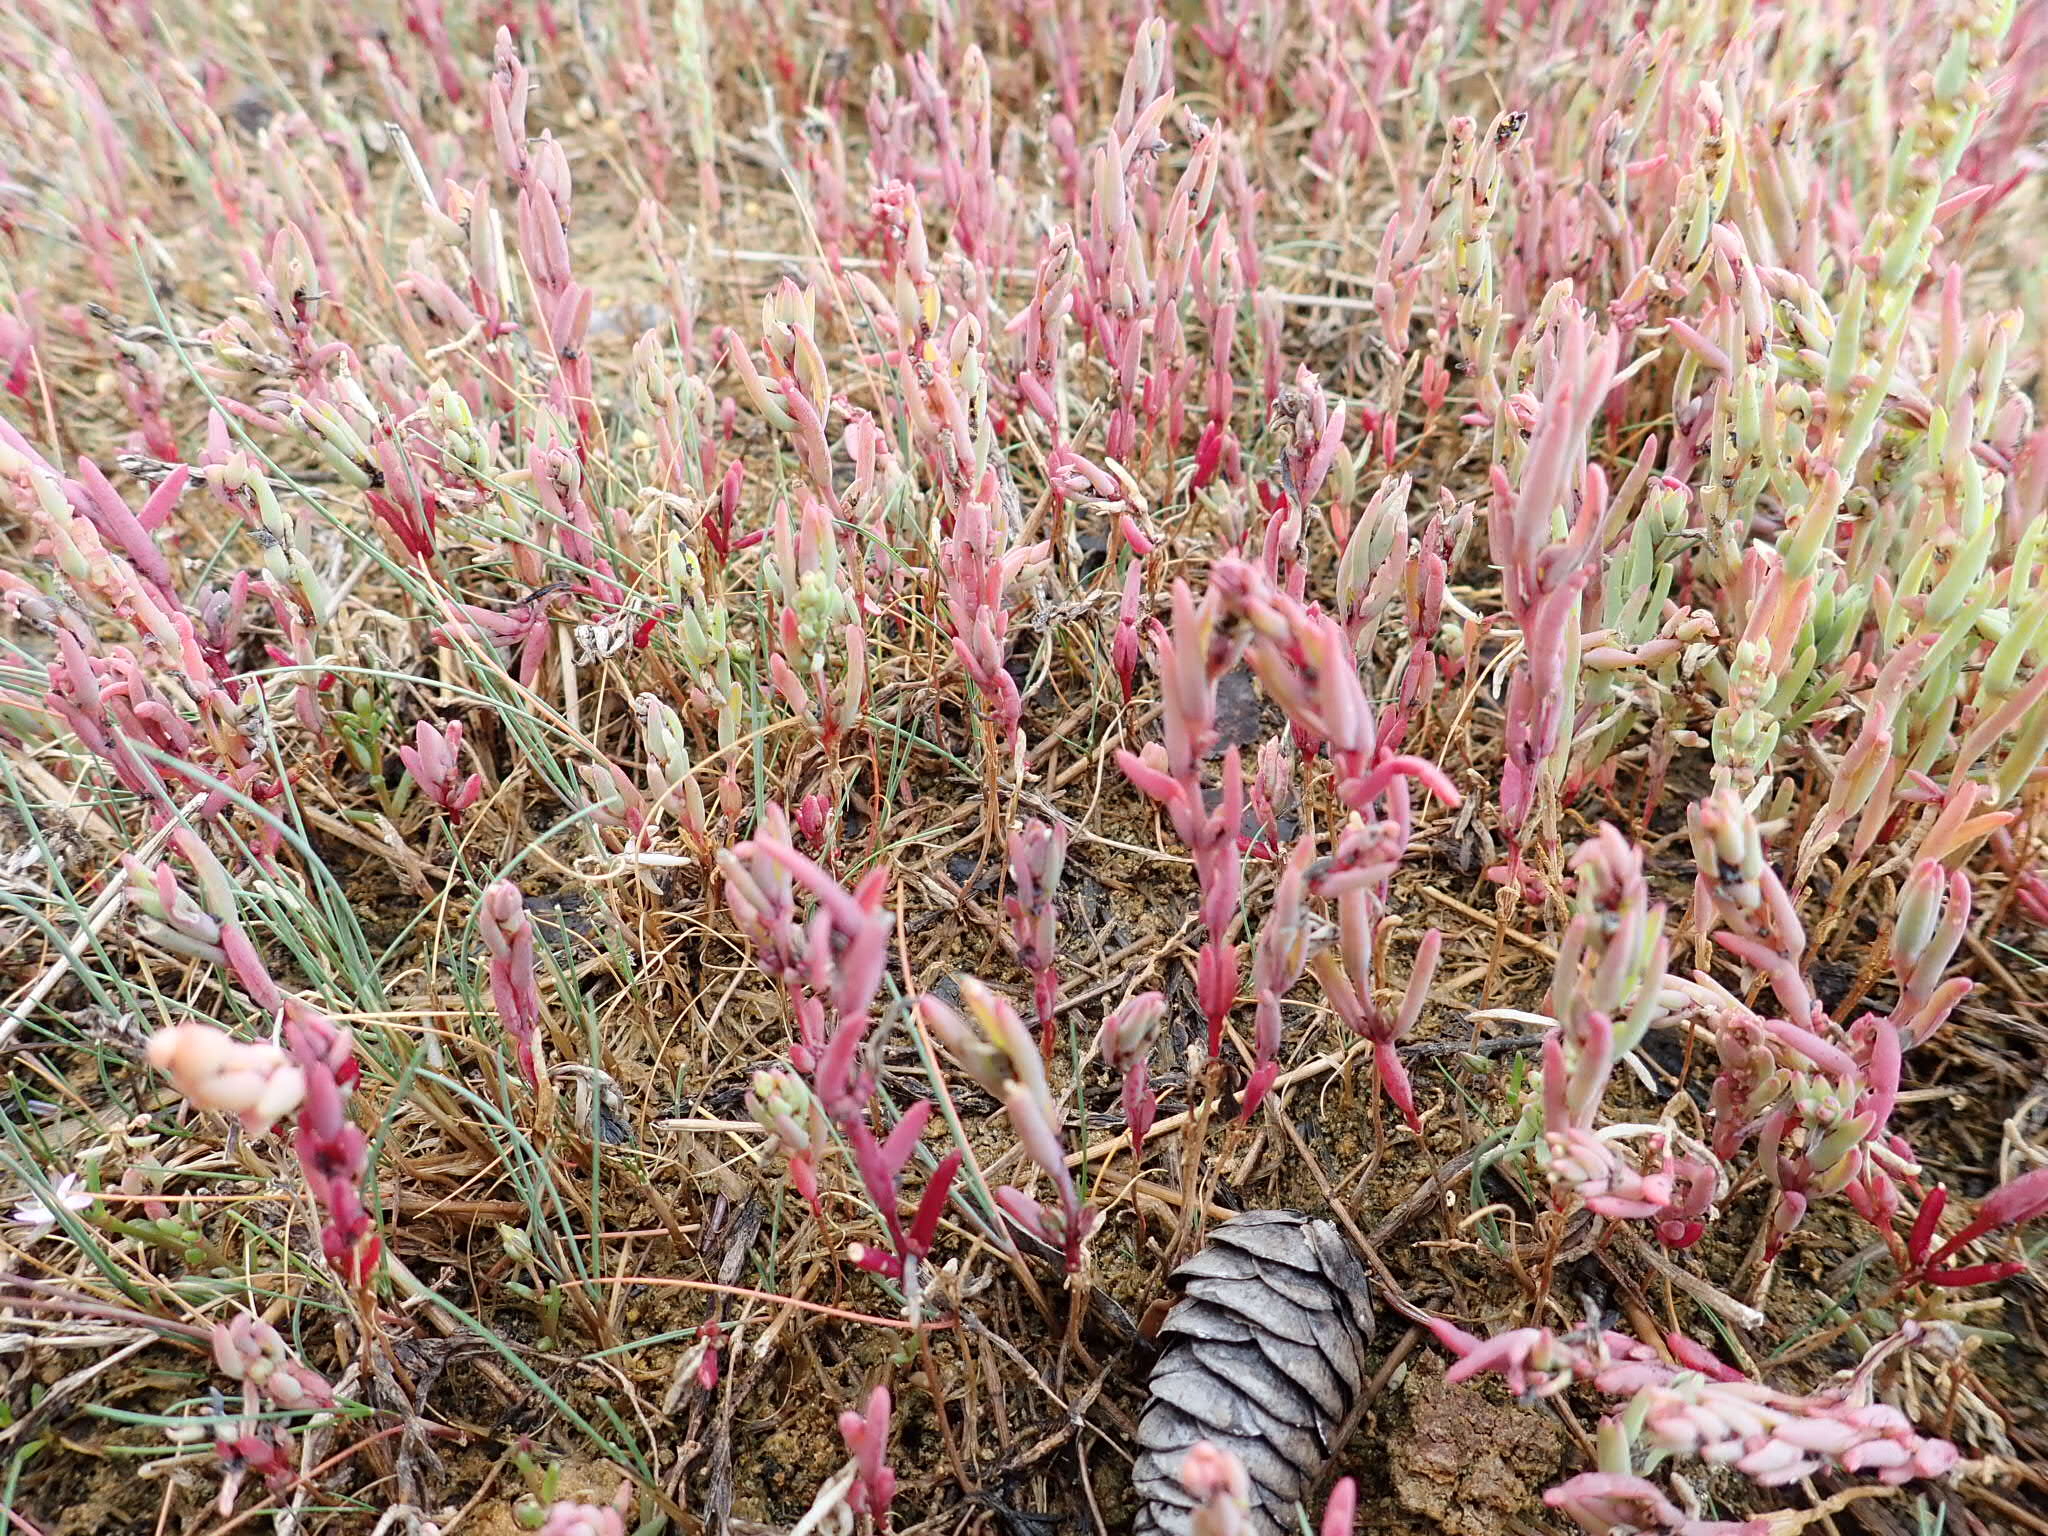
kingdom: Plantae
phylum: Tracheophyta
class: Magnoliopsida
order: Caryophyllales
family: Amaranthaceae
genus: Salicornia
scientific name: Salicornia rubra
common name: Red glasswort
